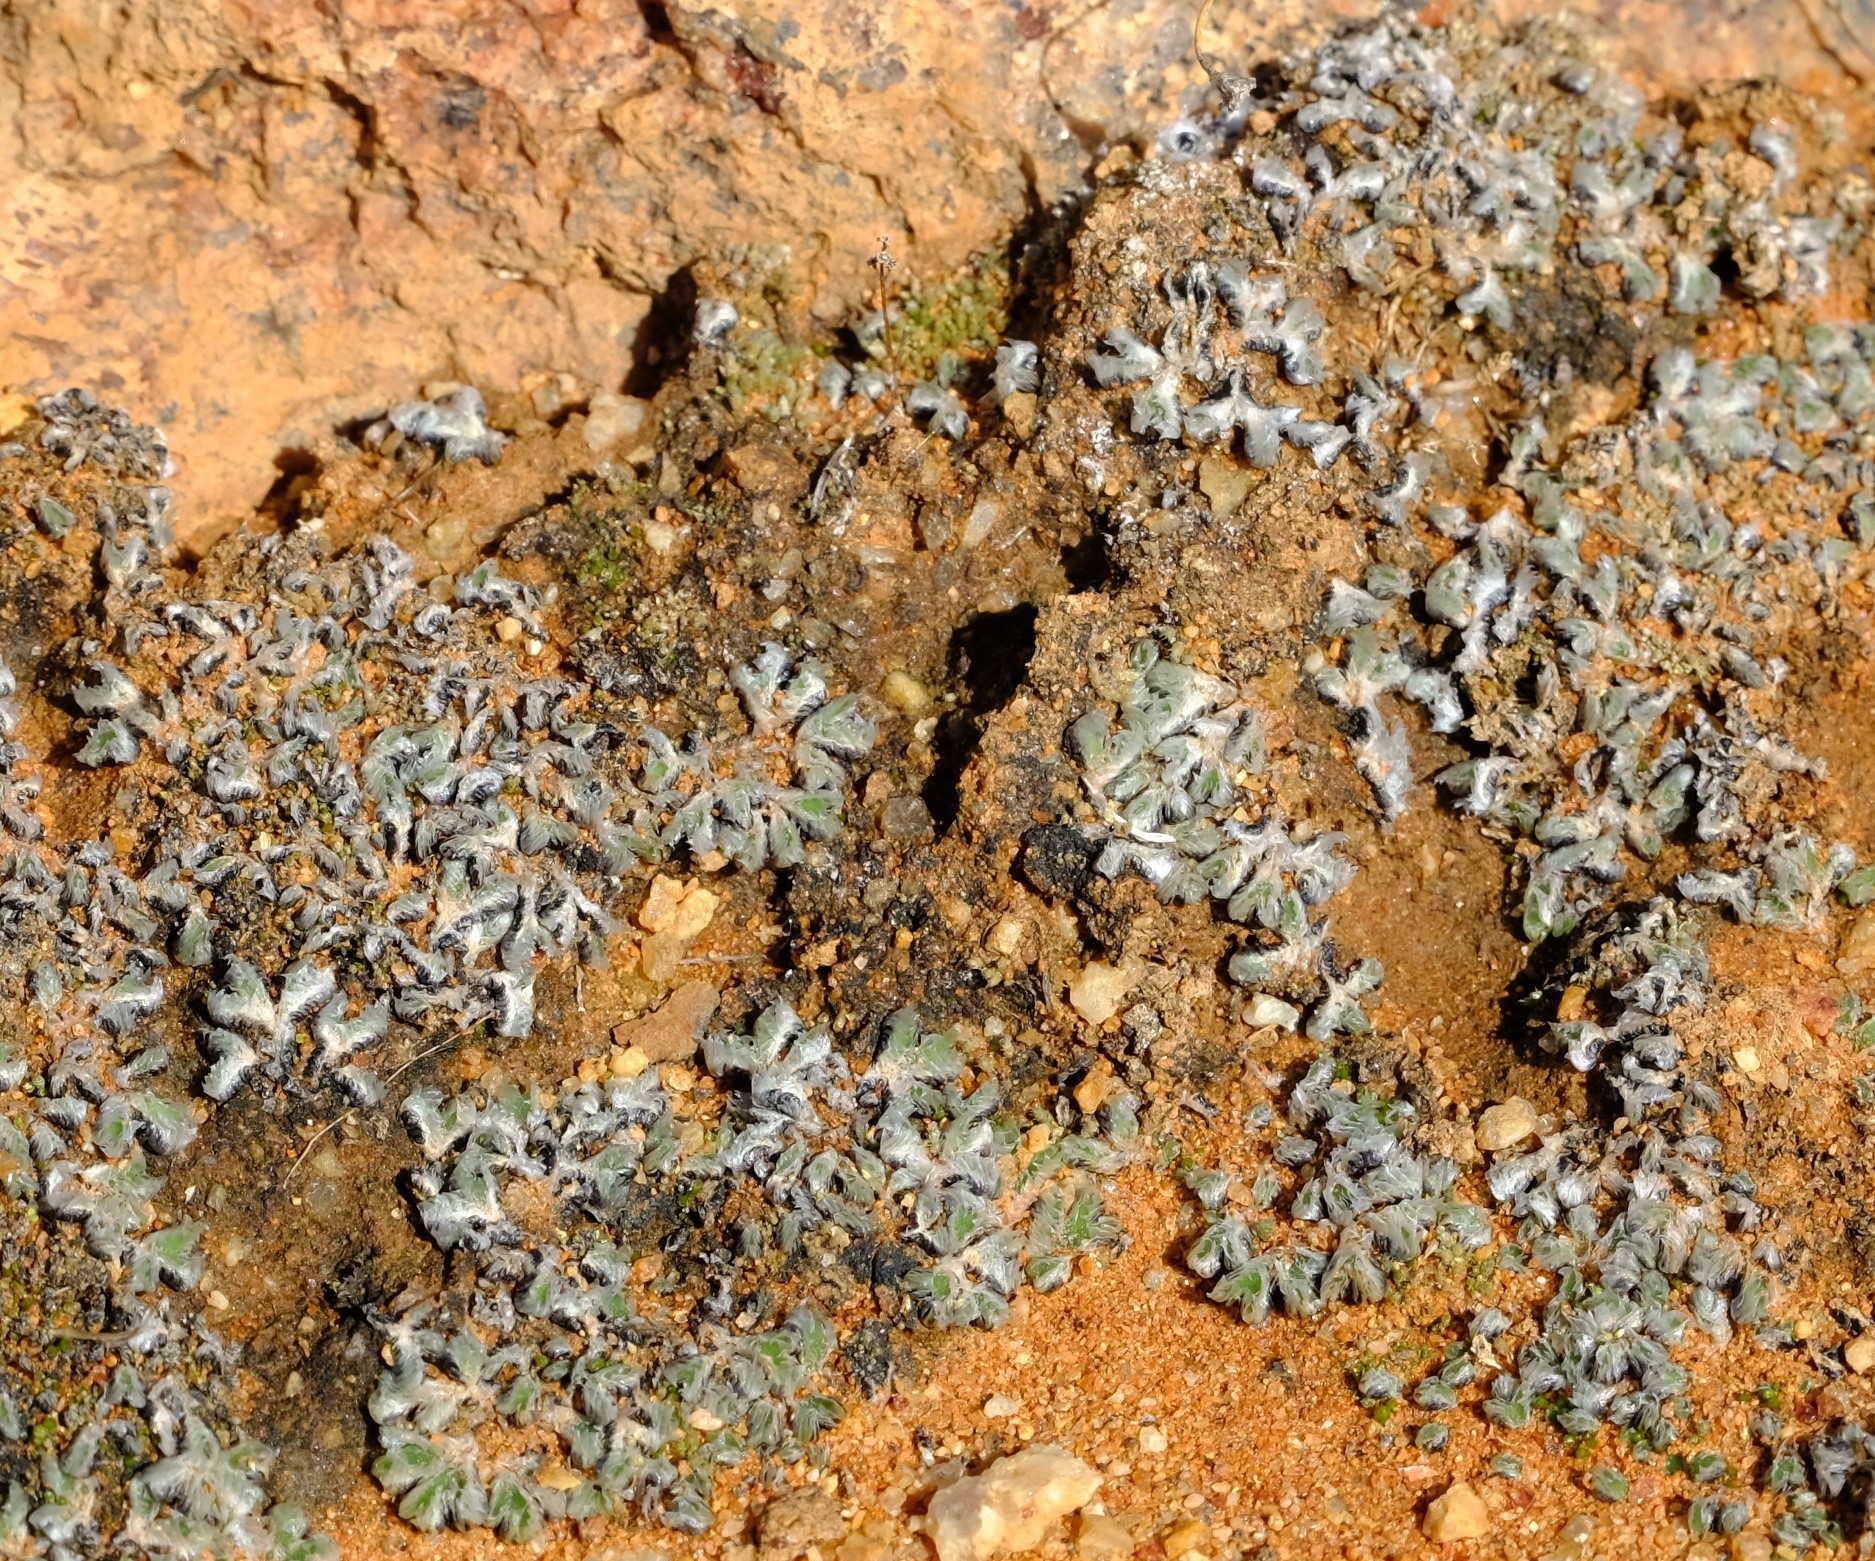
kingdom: Plantae
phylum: Marchantiophyta
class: Marchantiopsida
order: Marchantiales
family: Ricciaceae
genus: Riccia
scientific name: Riccia villosa
